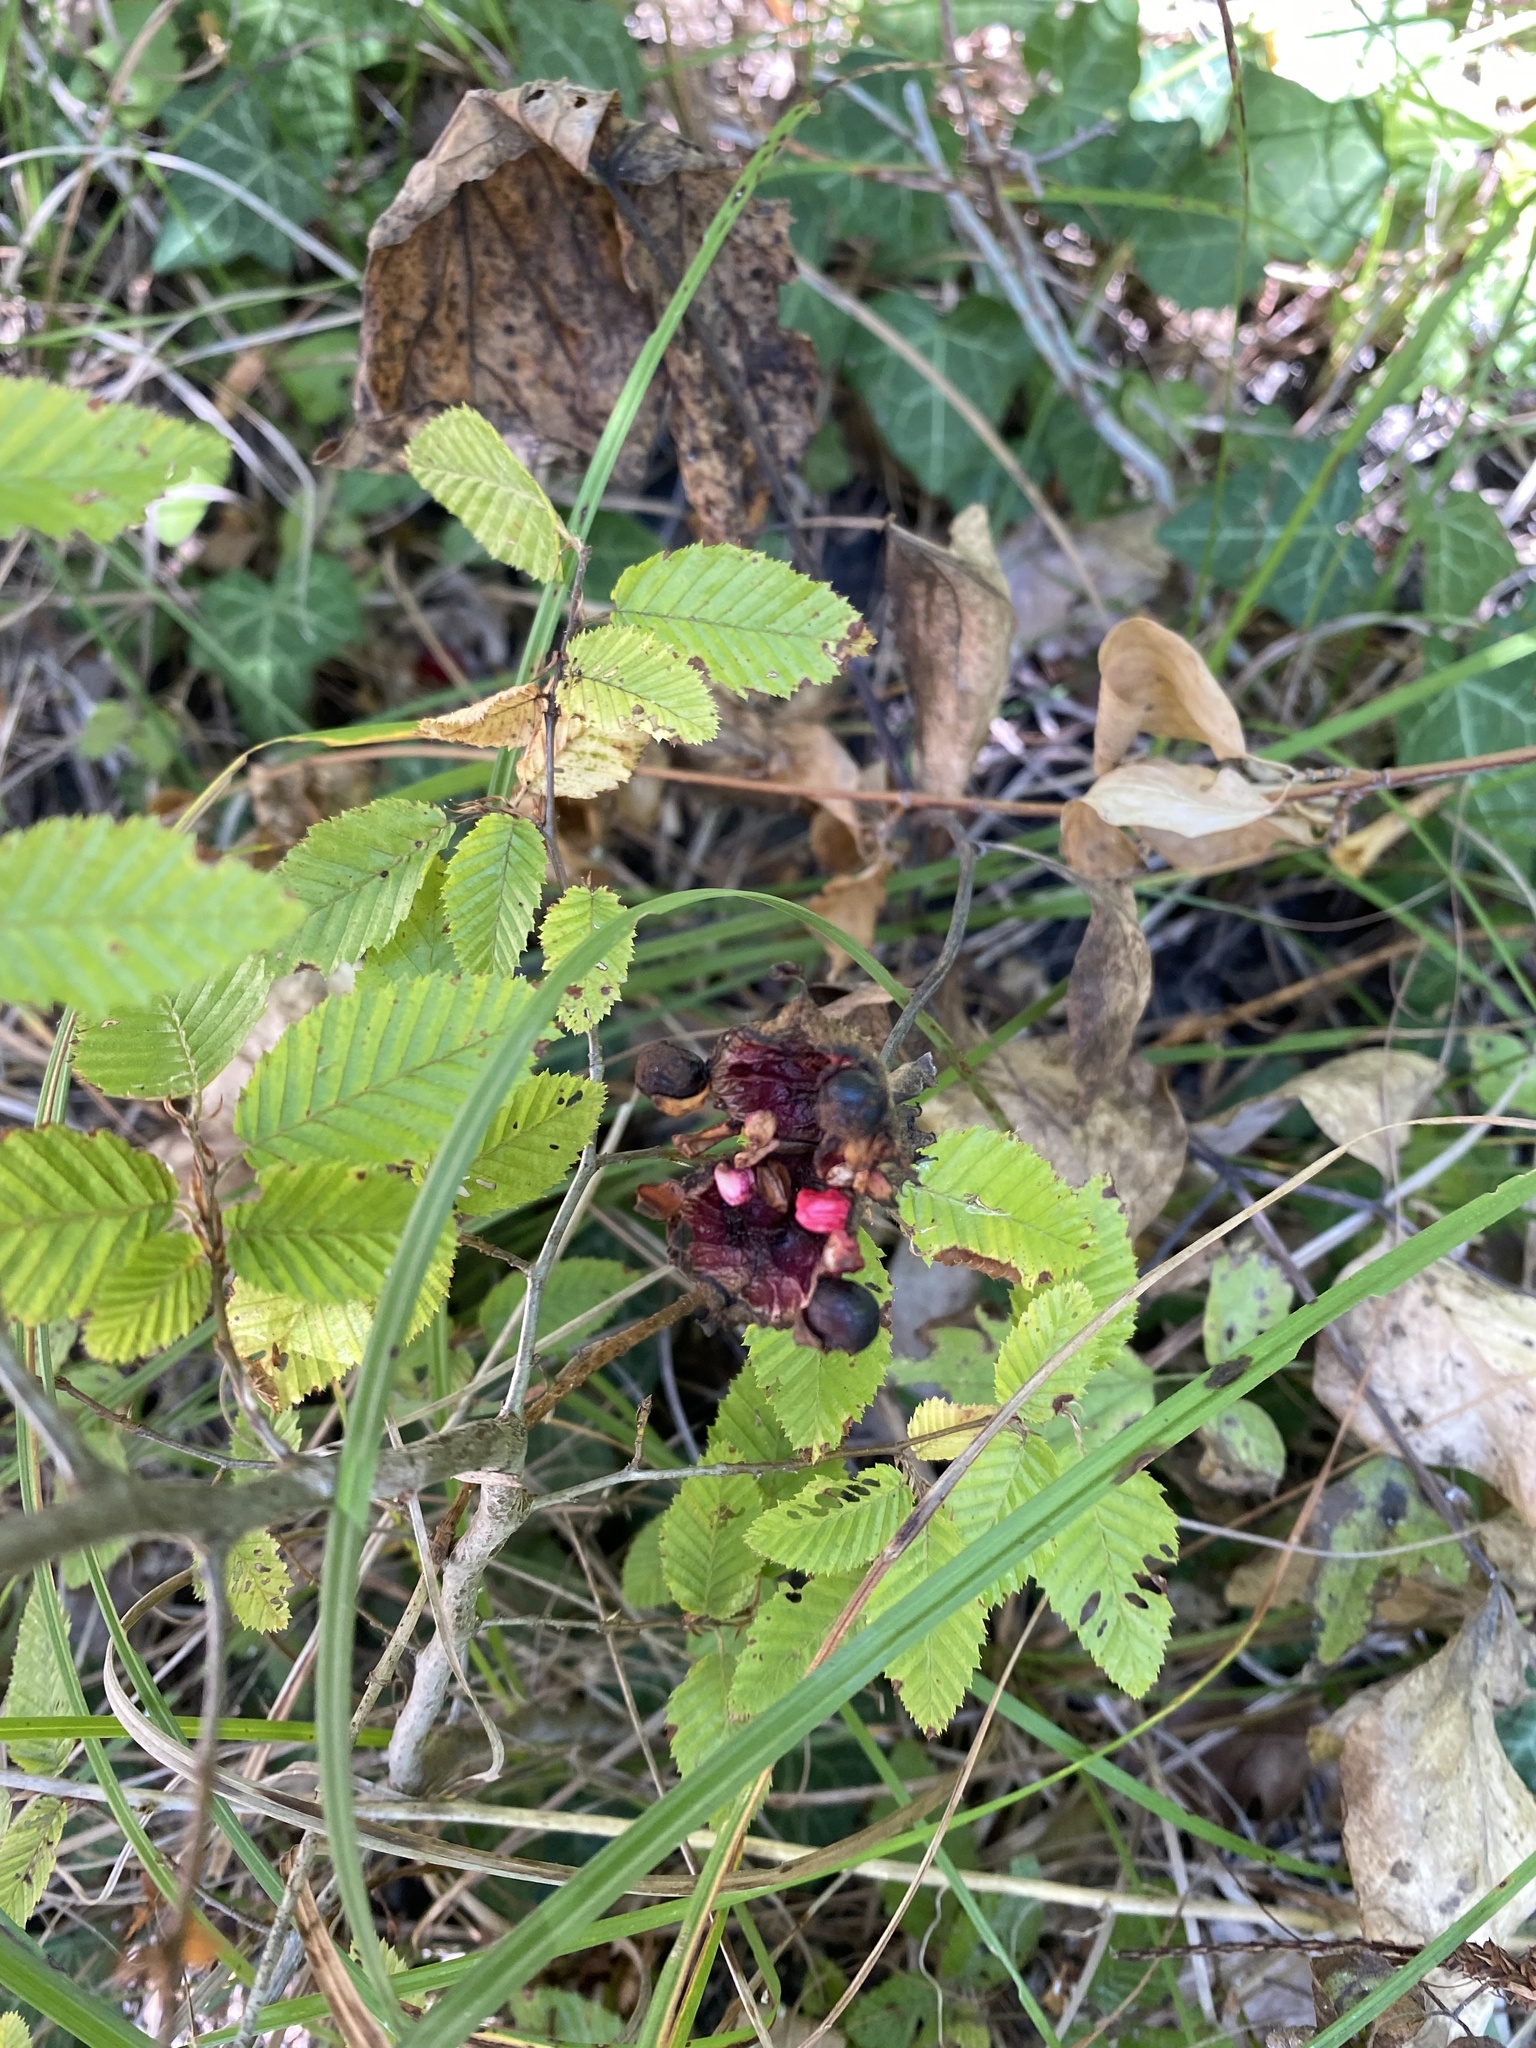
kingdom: Plantae
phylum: Tracheophyta
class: Magnoliopsida
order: Saxifragales
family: Paeoniaceae
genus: Paeonia
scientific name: Paeonia caucasica
